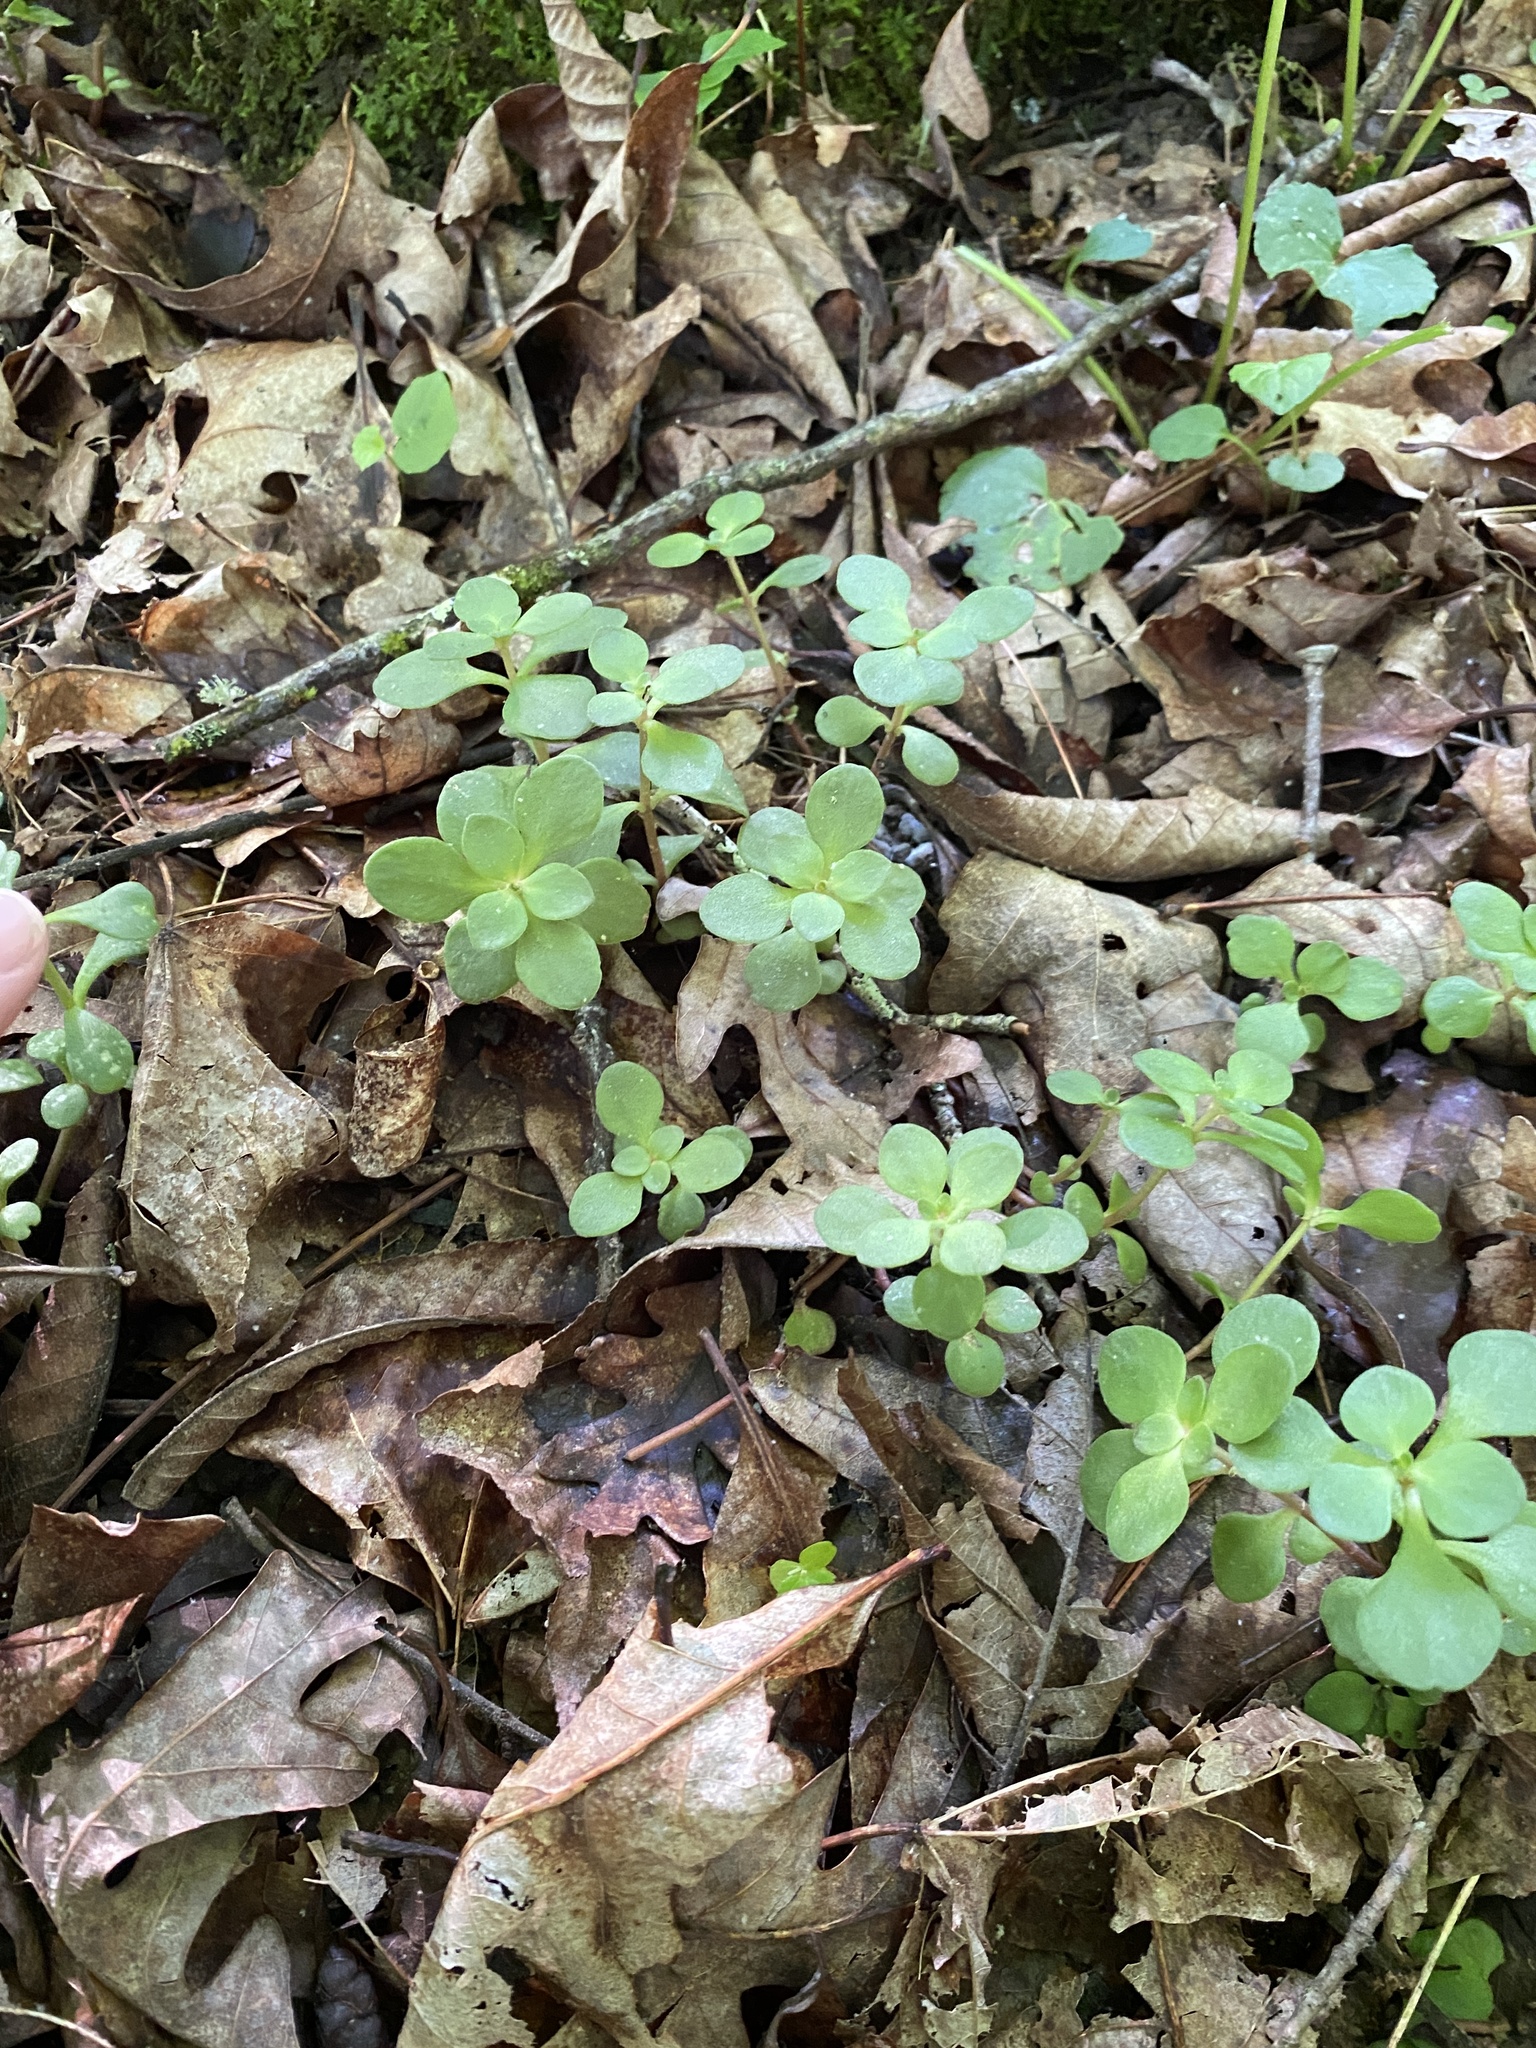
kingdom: Plantae
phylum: Tracheophyta
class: Magnoliopsida
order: Saxifragales
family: Crassulaceae
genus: Sedum
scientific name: Sedum ternatum
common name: Wild stonecrop
